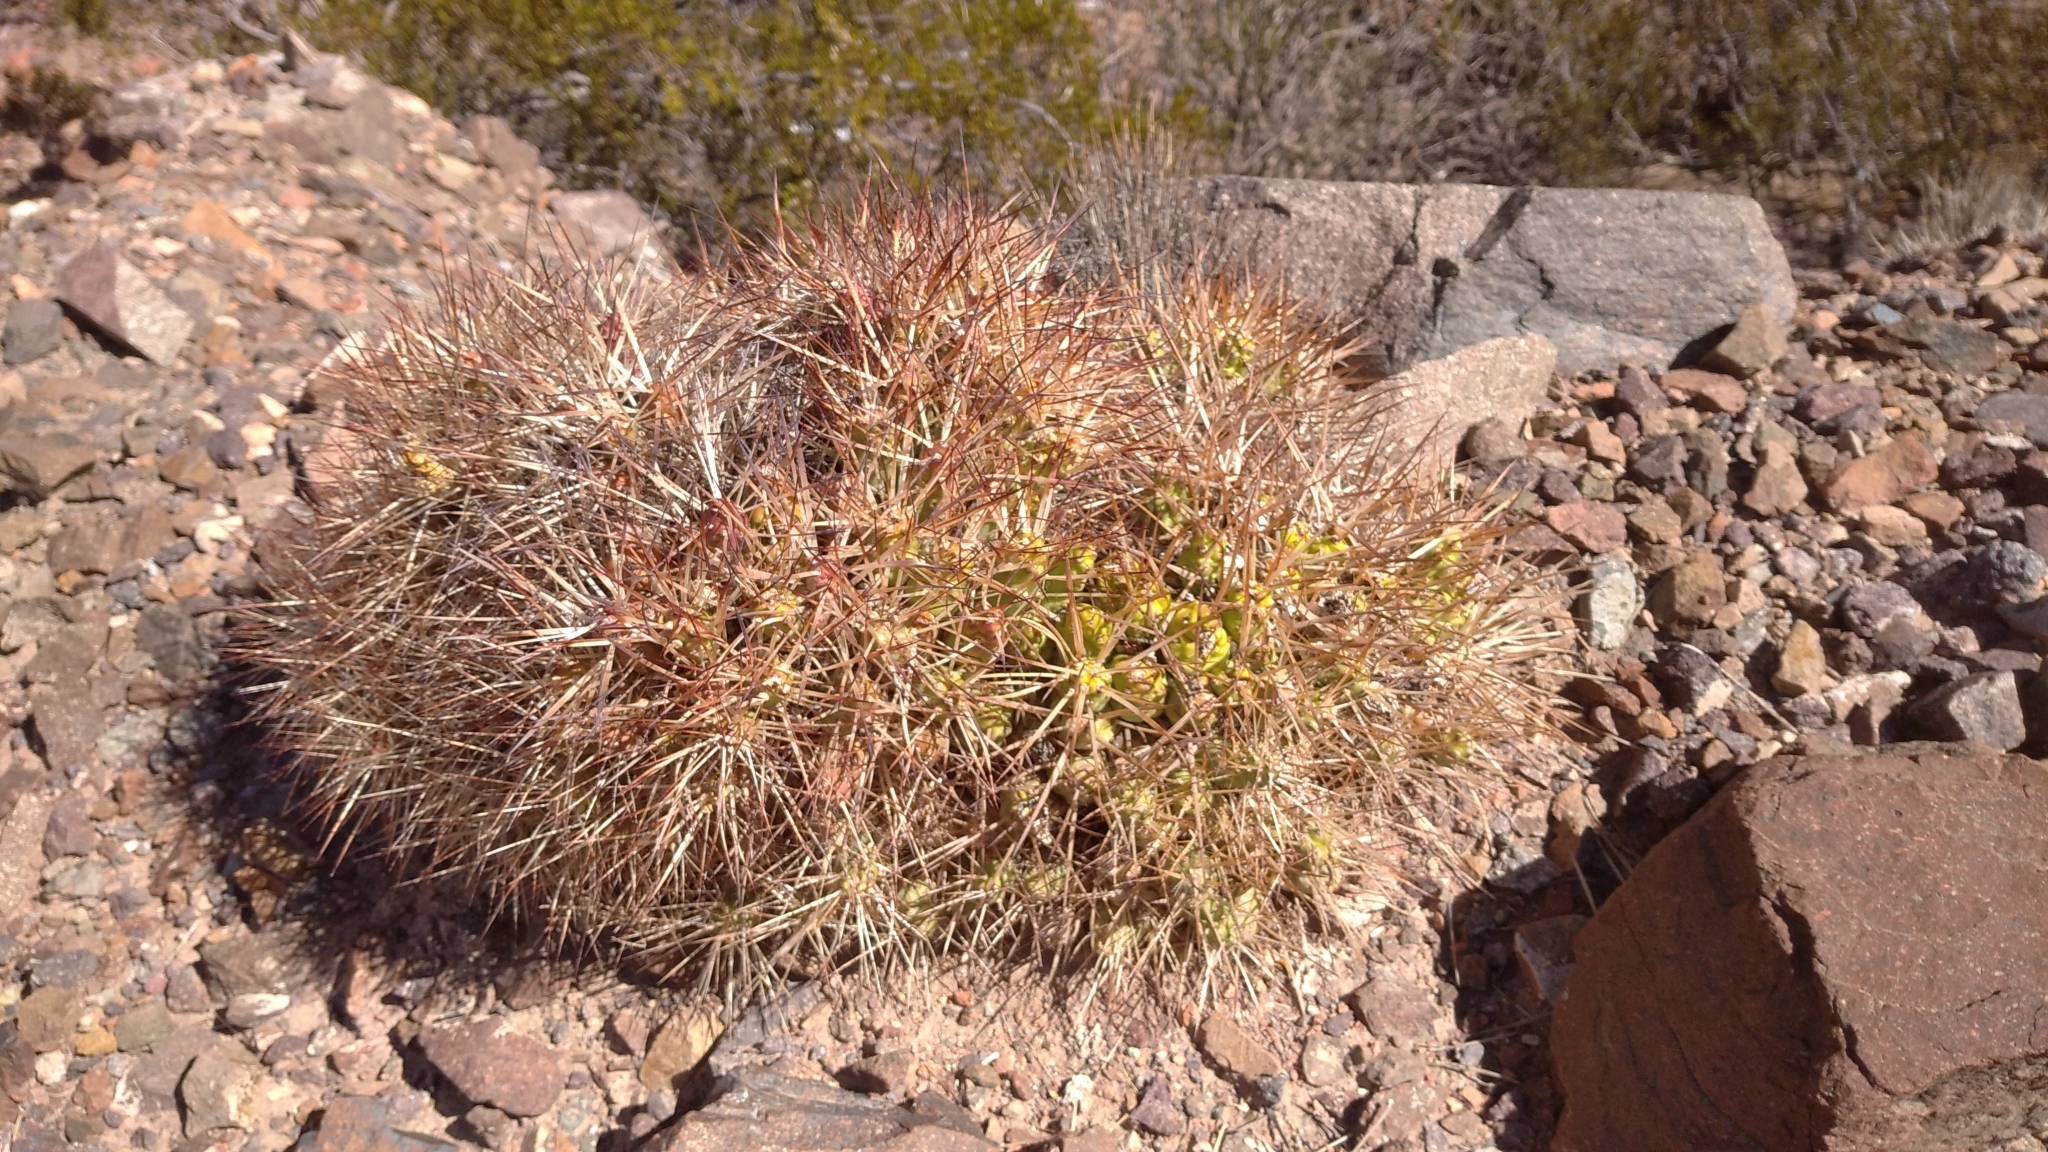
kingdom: Plantae
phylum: Tracheophyta
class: Magnoliopsida
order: Caryophyllales
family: Cactaceae
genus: Maihueniopsis
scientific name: Maihueniopsis glomerata
